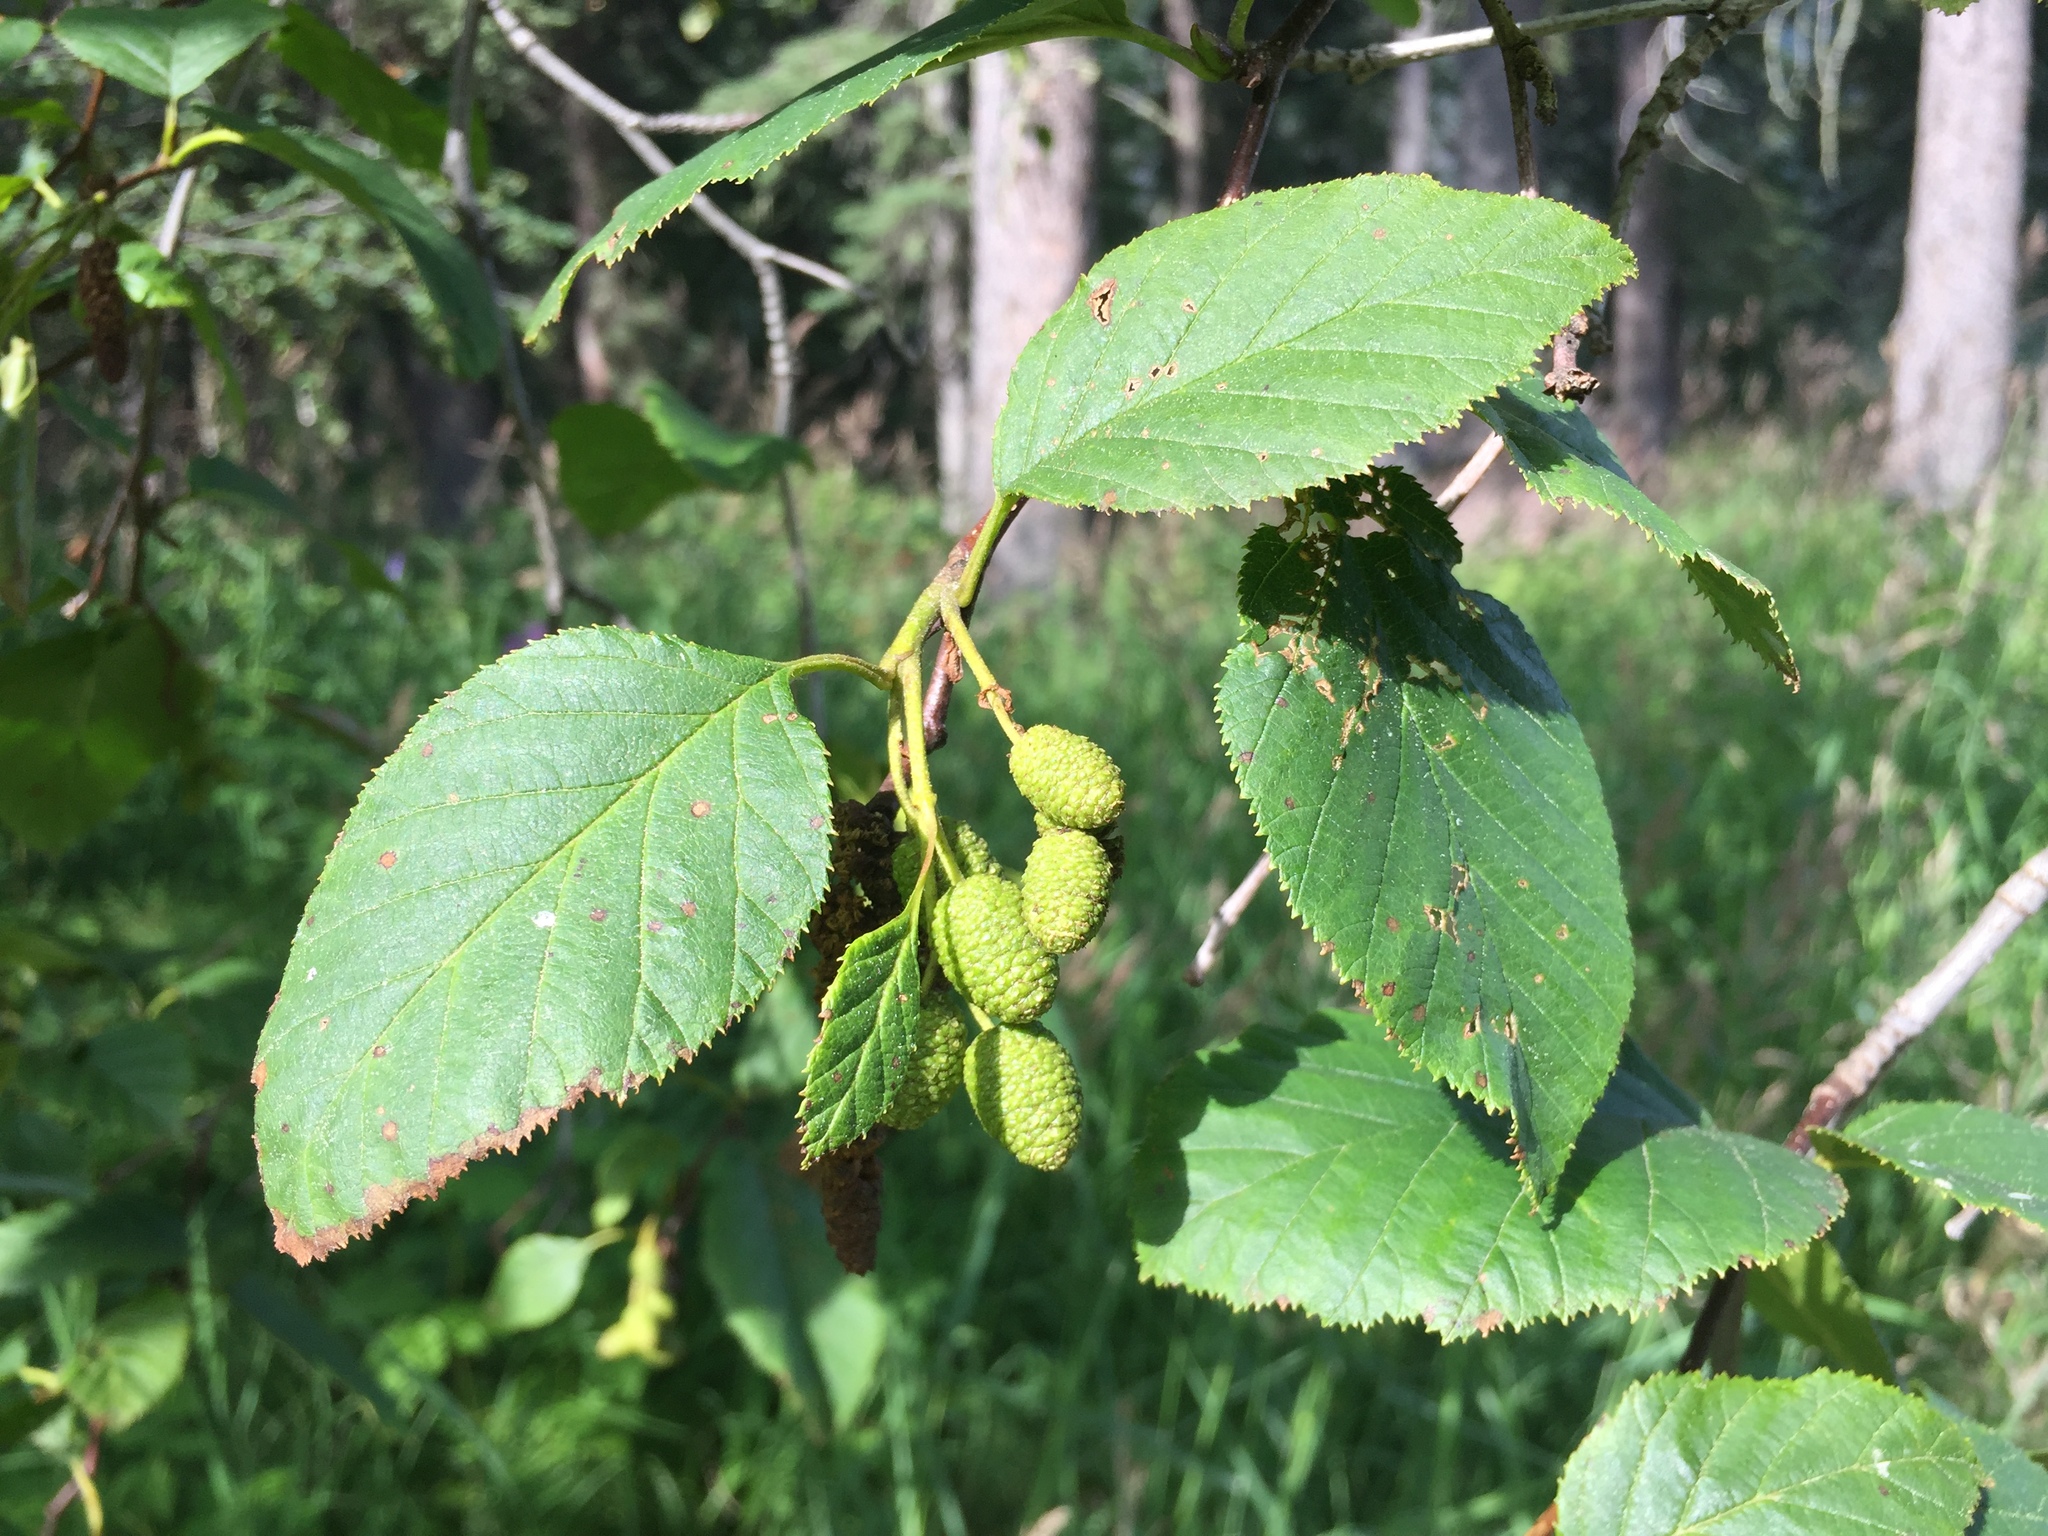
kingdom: Plantae
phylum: Tracheophyta
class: Magnoliopsida
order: Fagales
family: Betulaceae
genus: Alnus
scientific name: Alnus alnobetula
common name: Green alder
